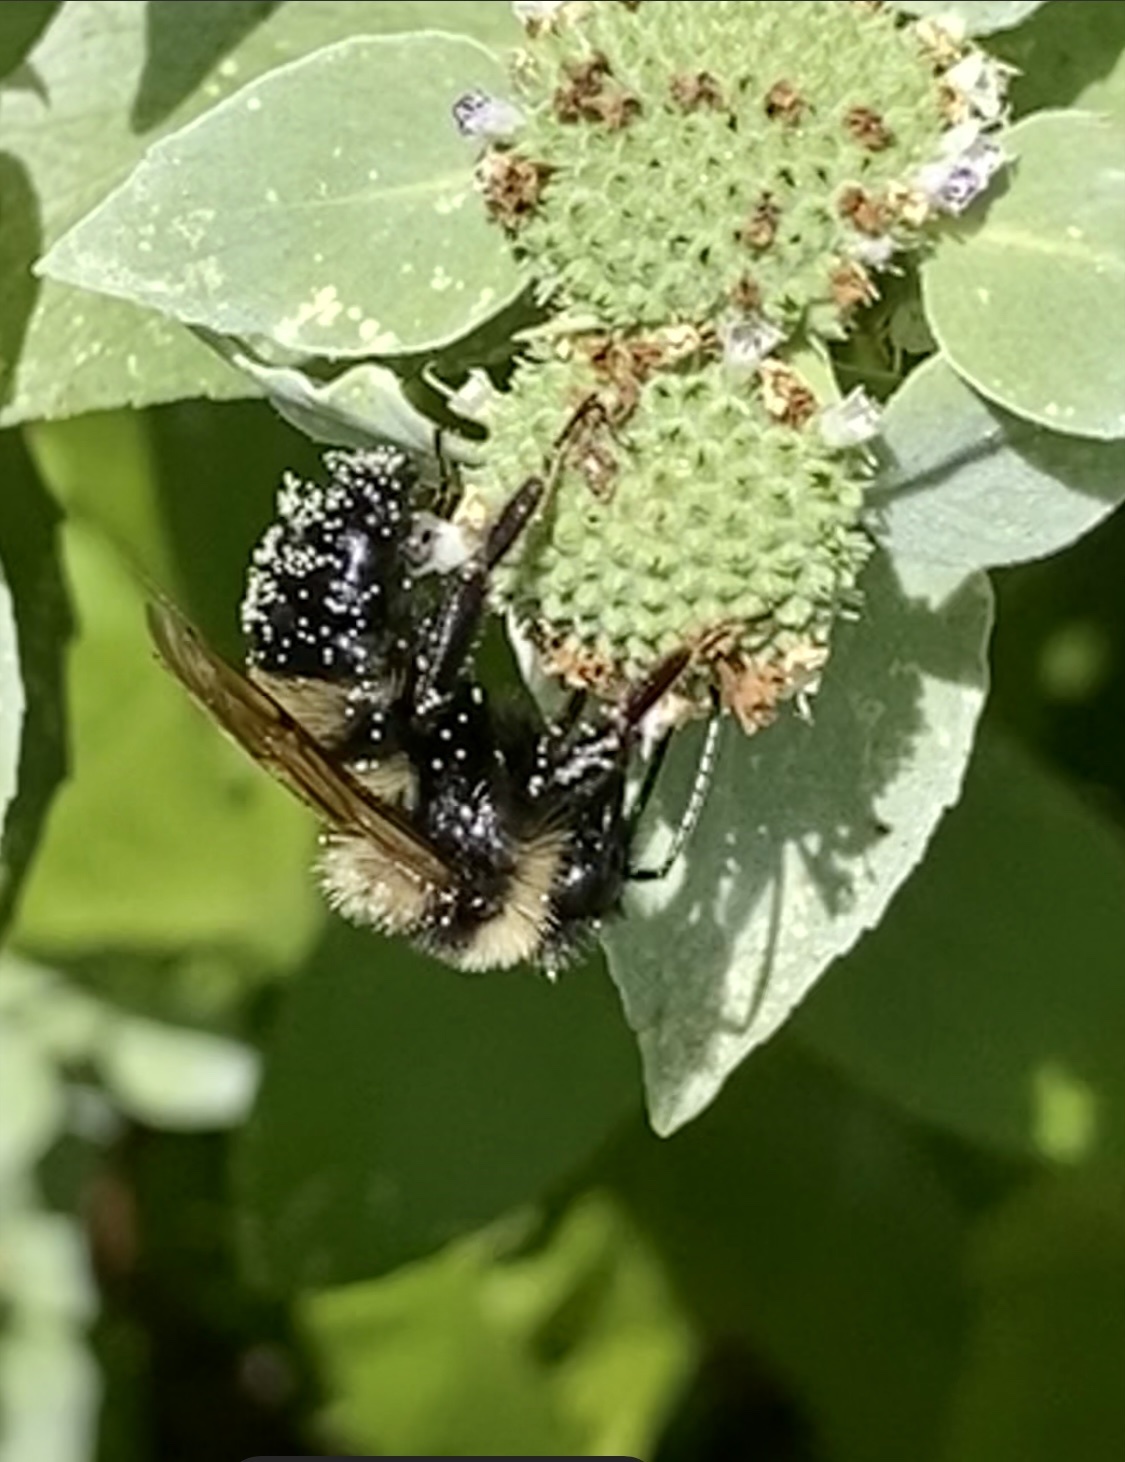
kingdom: Animalia
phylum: Arthropoda
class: Insecta
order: Hymenoptera
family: Apidae
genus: Bombus
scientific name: Bombus citrinus
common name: Lemon cuckoo bumble bee
